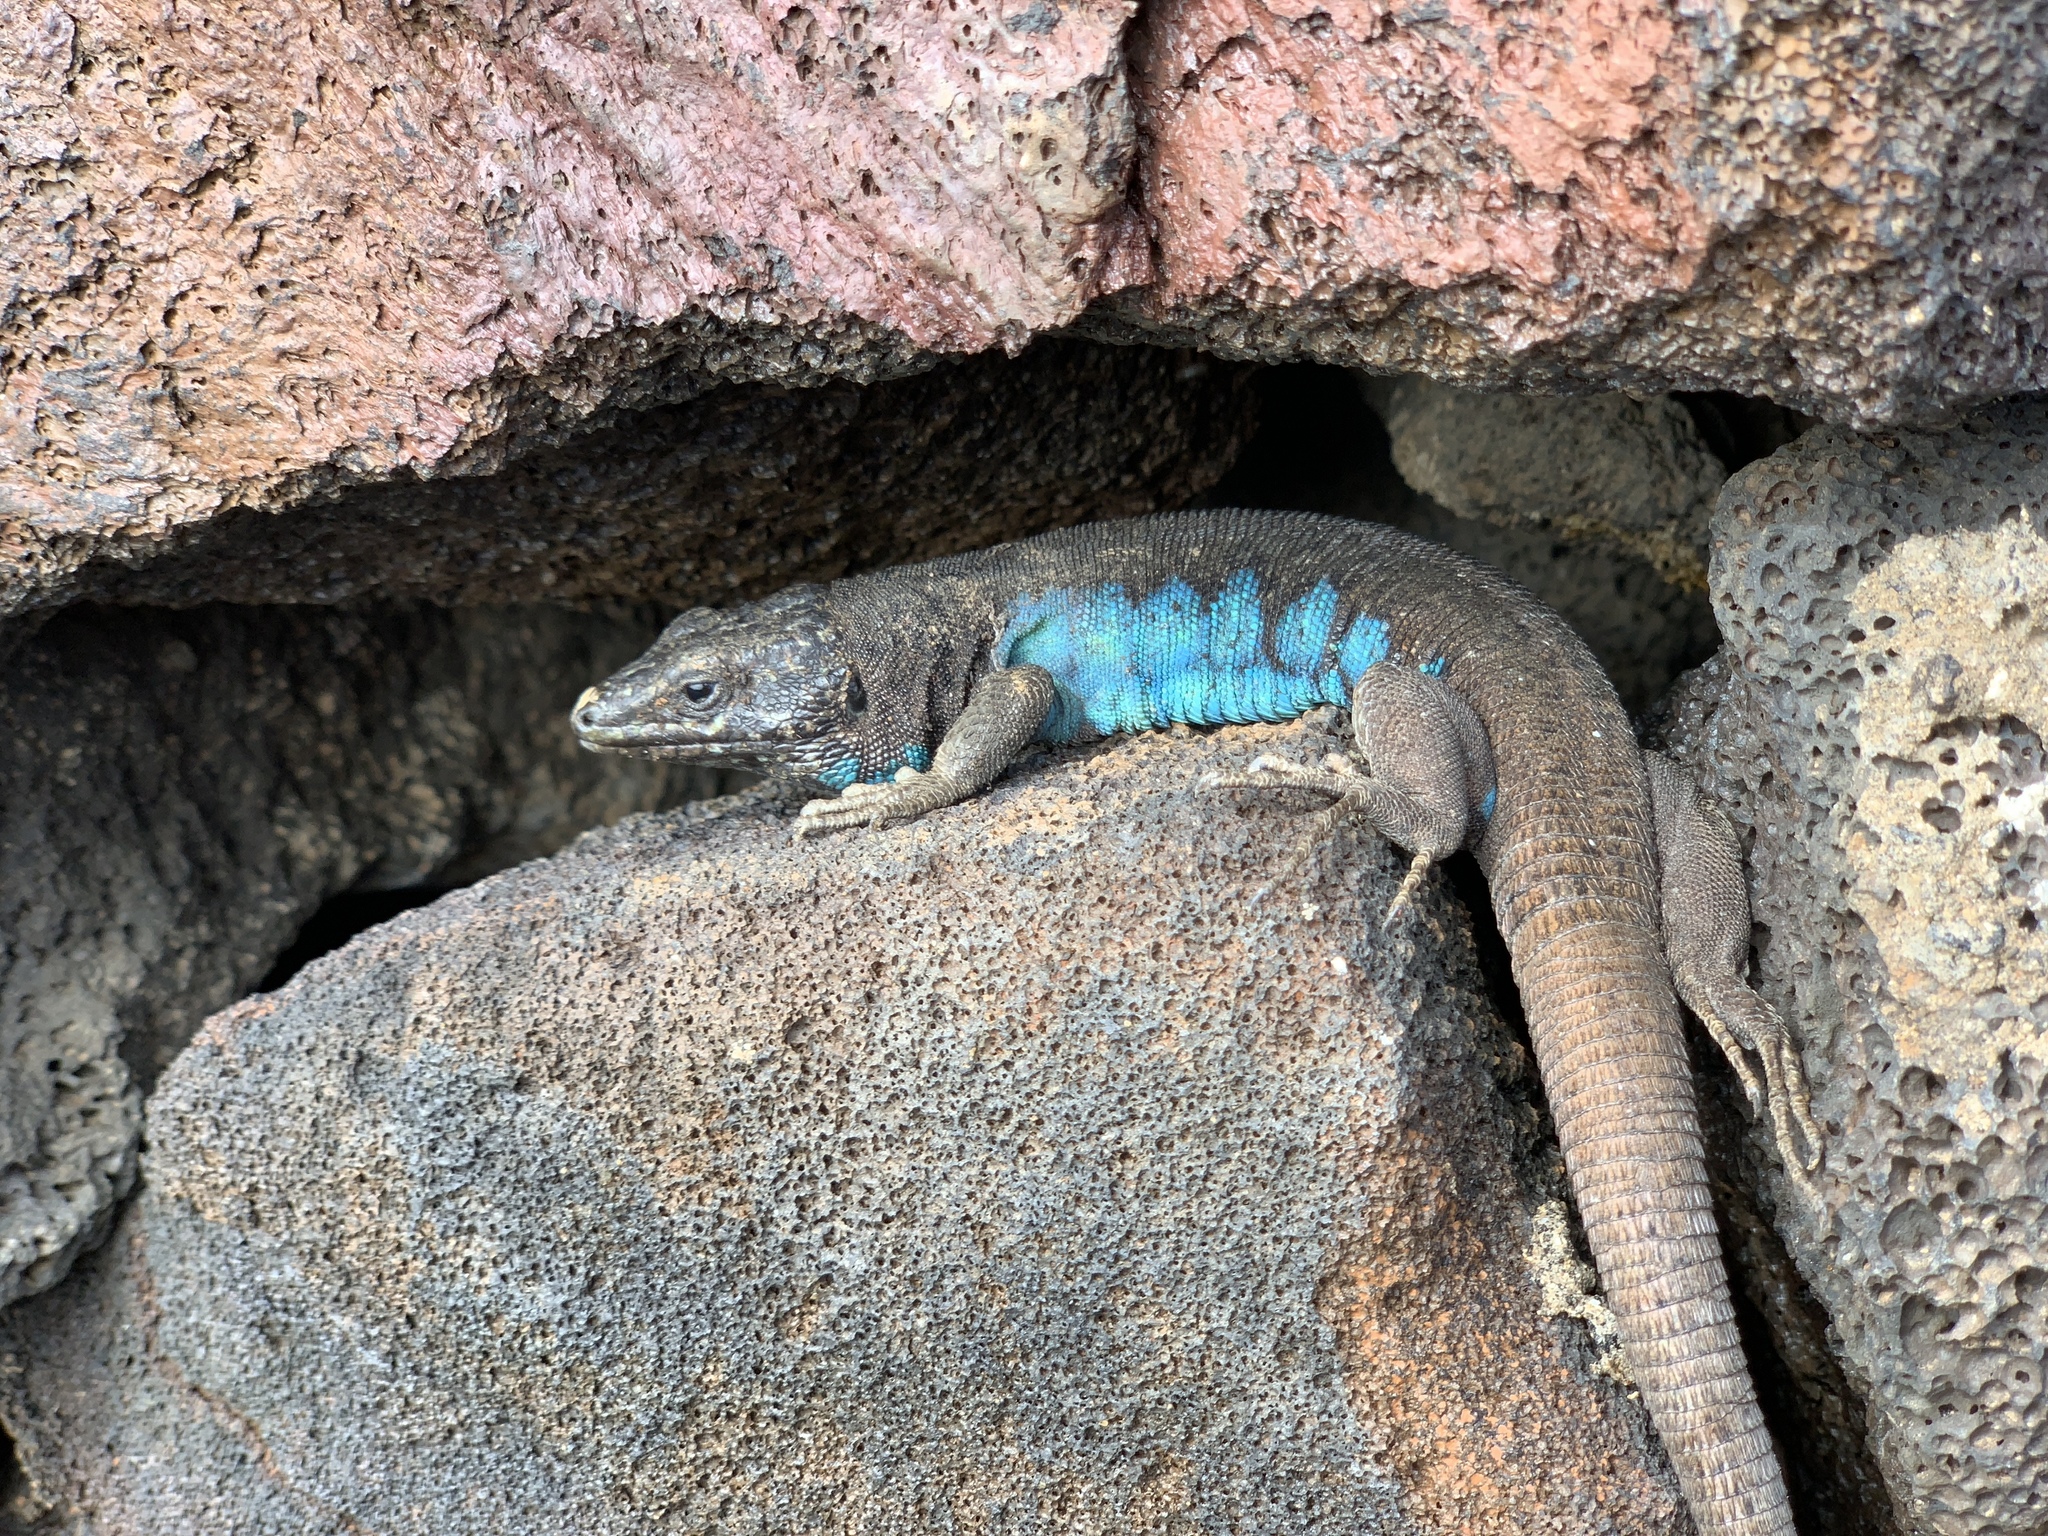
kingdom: Animalia
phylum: Chordata
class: Squamata
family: Lacertidae
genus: Gallotia
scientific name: Gallotia atlantica
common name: Atlantic lizard
